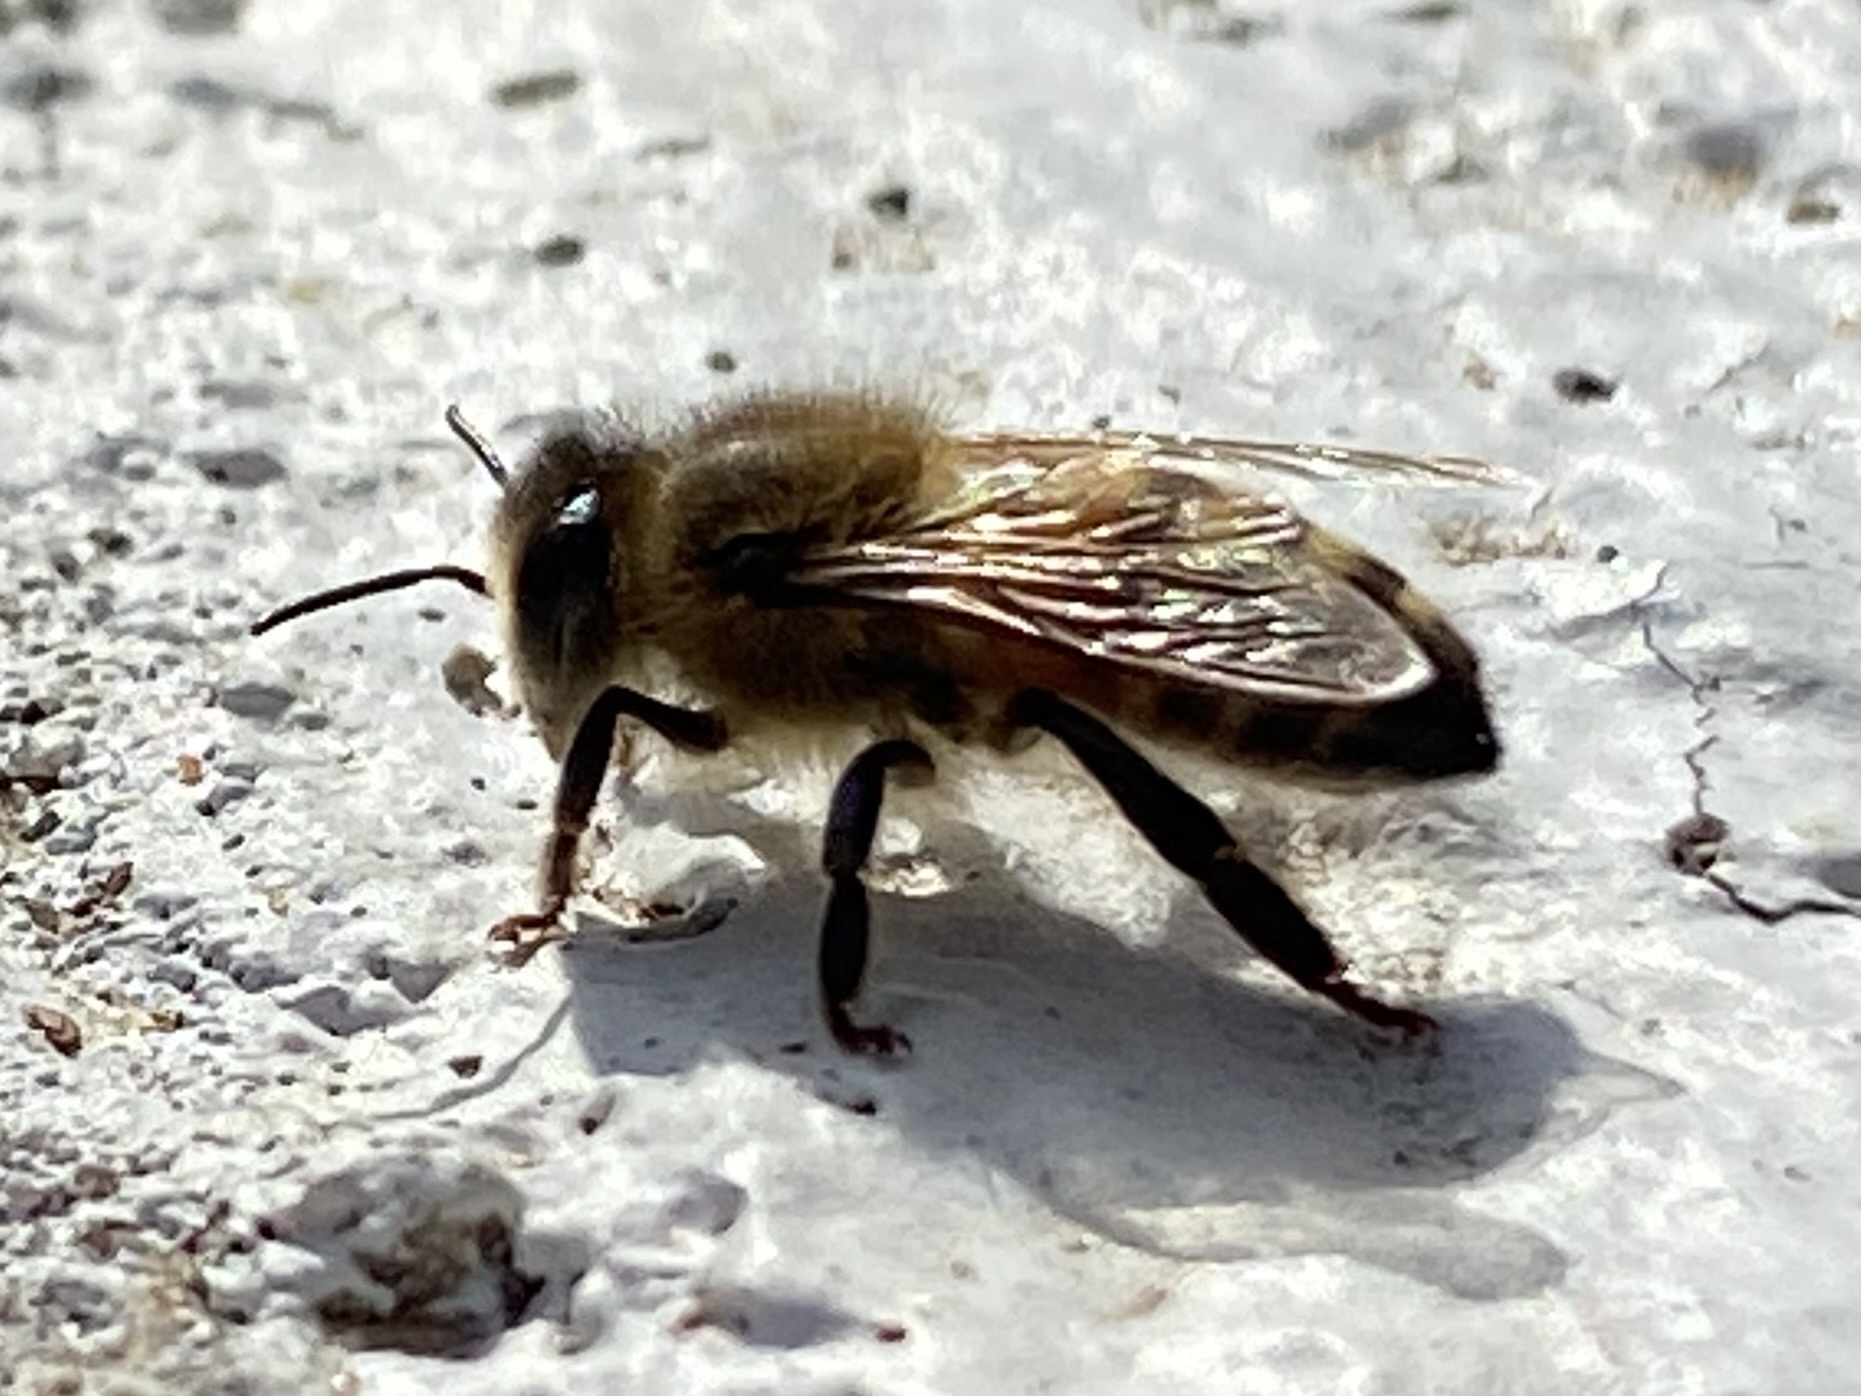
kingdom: Animalia
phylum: Arthropoda
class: Insecta
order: Hymenoptera
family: Apidae
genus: Apis
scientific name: Apis mellifera
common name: Honey bee
